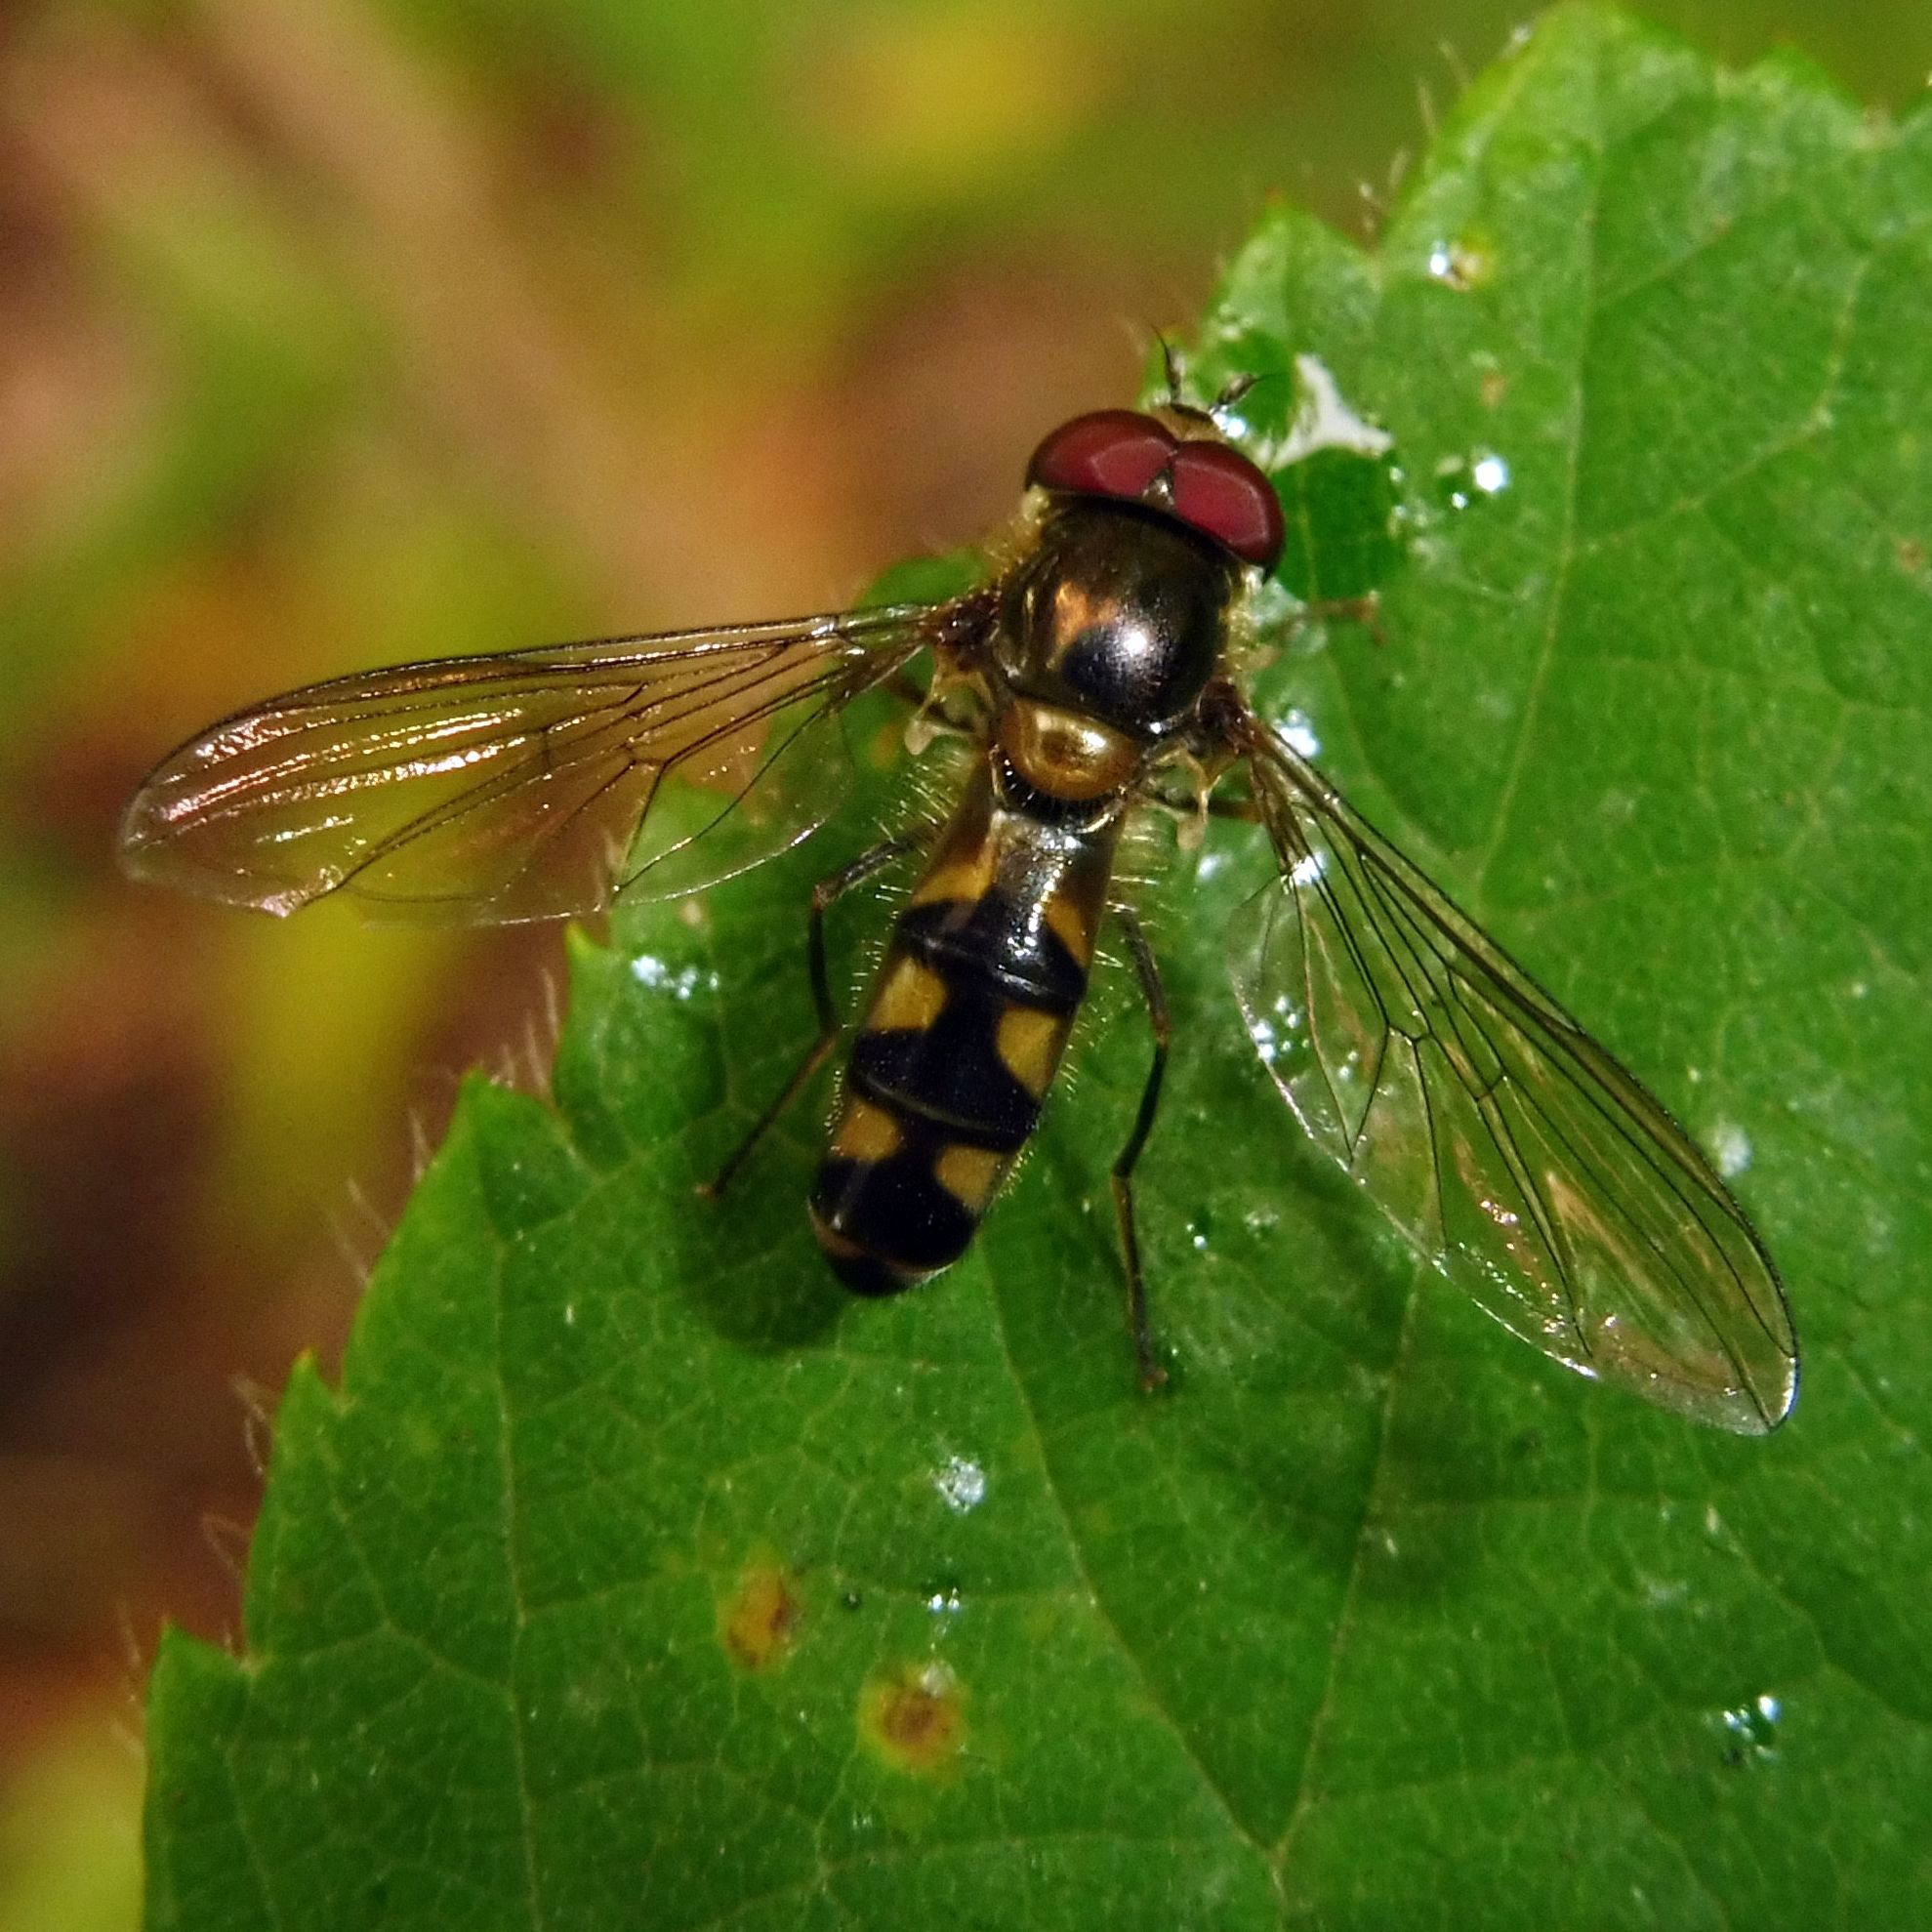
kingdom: Animalia
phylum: Arthropoda
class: Insecta
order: Diptera
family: Syrphidae
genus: Meliscaeva
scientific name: Meliscaeva auricollis
